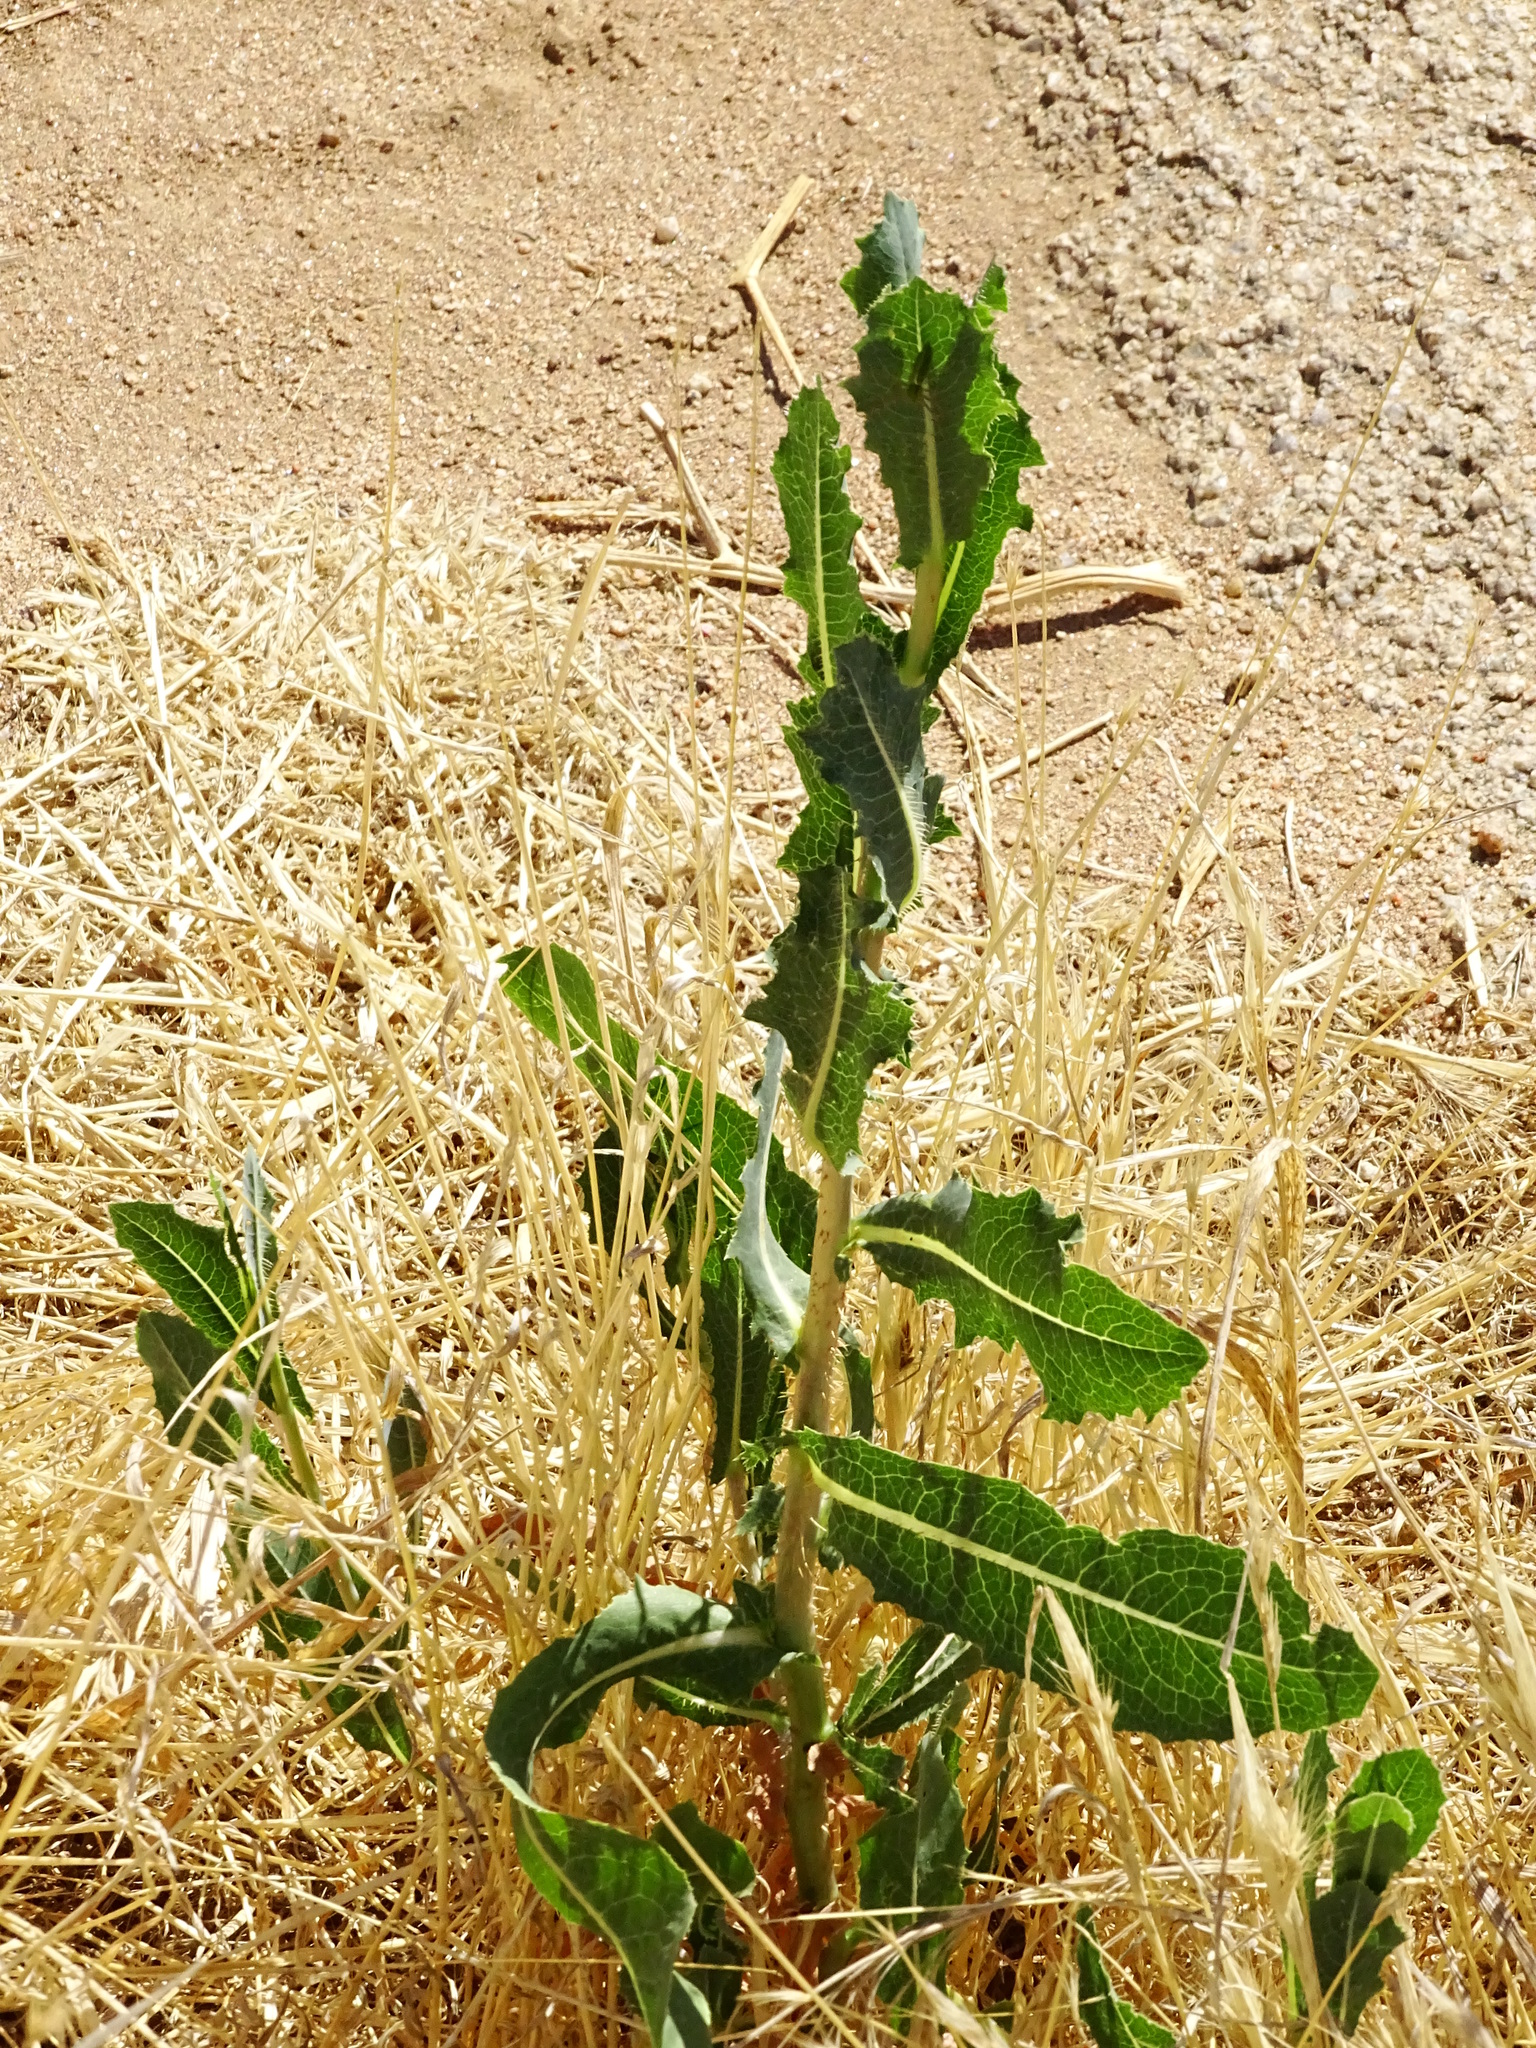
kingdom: Plantae
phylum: Tracheophyta
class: Magnoliopsida
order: Asterales
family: Asteraceae
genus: Lactuca
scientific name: Lactuca serriola
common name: Prickly lettuce
